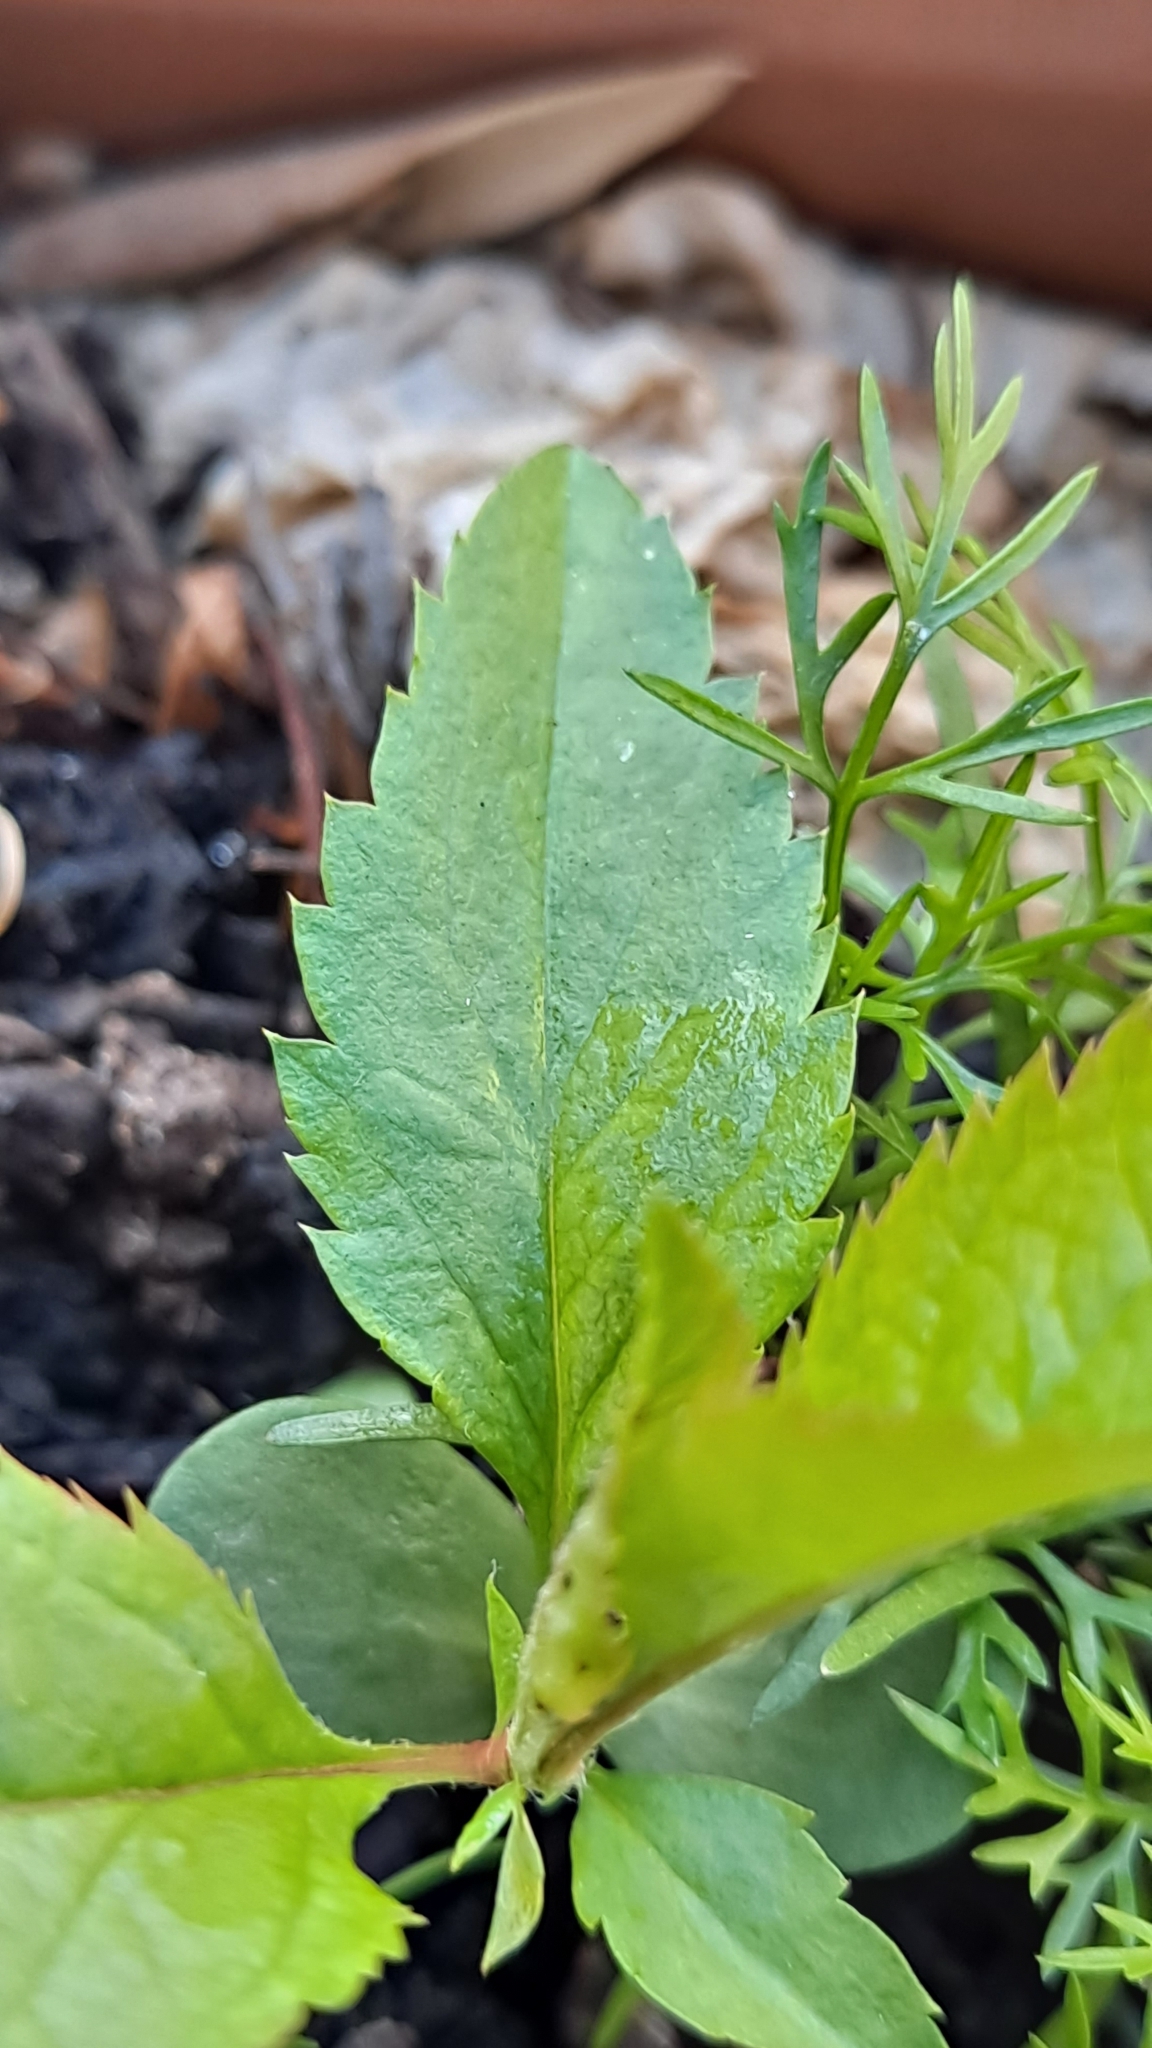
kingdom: Plantae
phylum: Tracheophyta
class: Magnoliopsida
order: Rosales
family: Rosaceae
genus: Malus
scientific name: Malus domestica
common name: Apple
